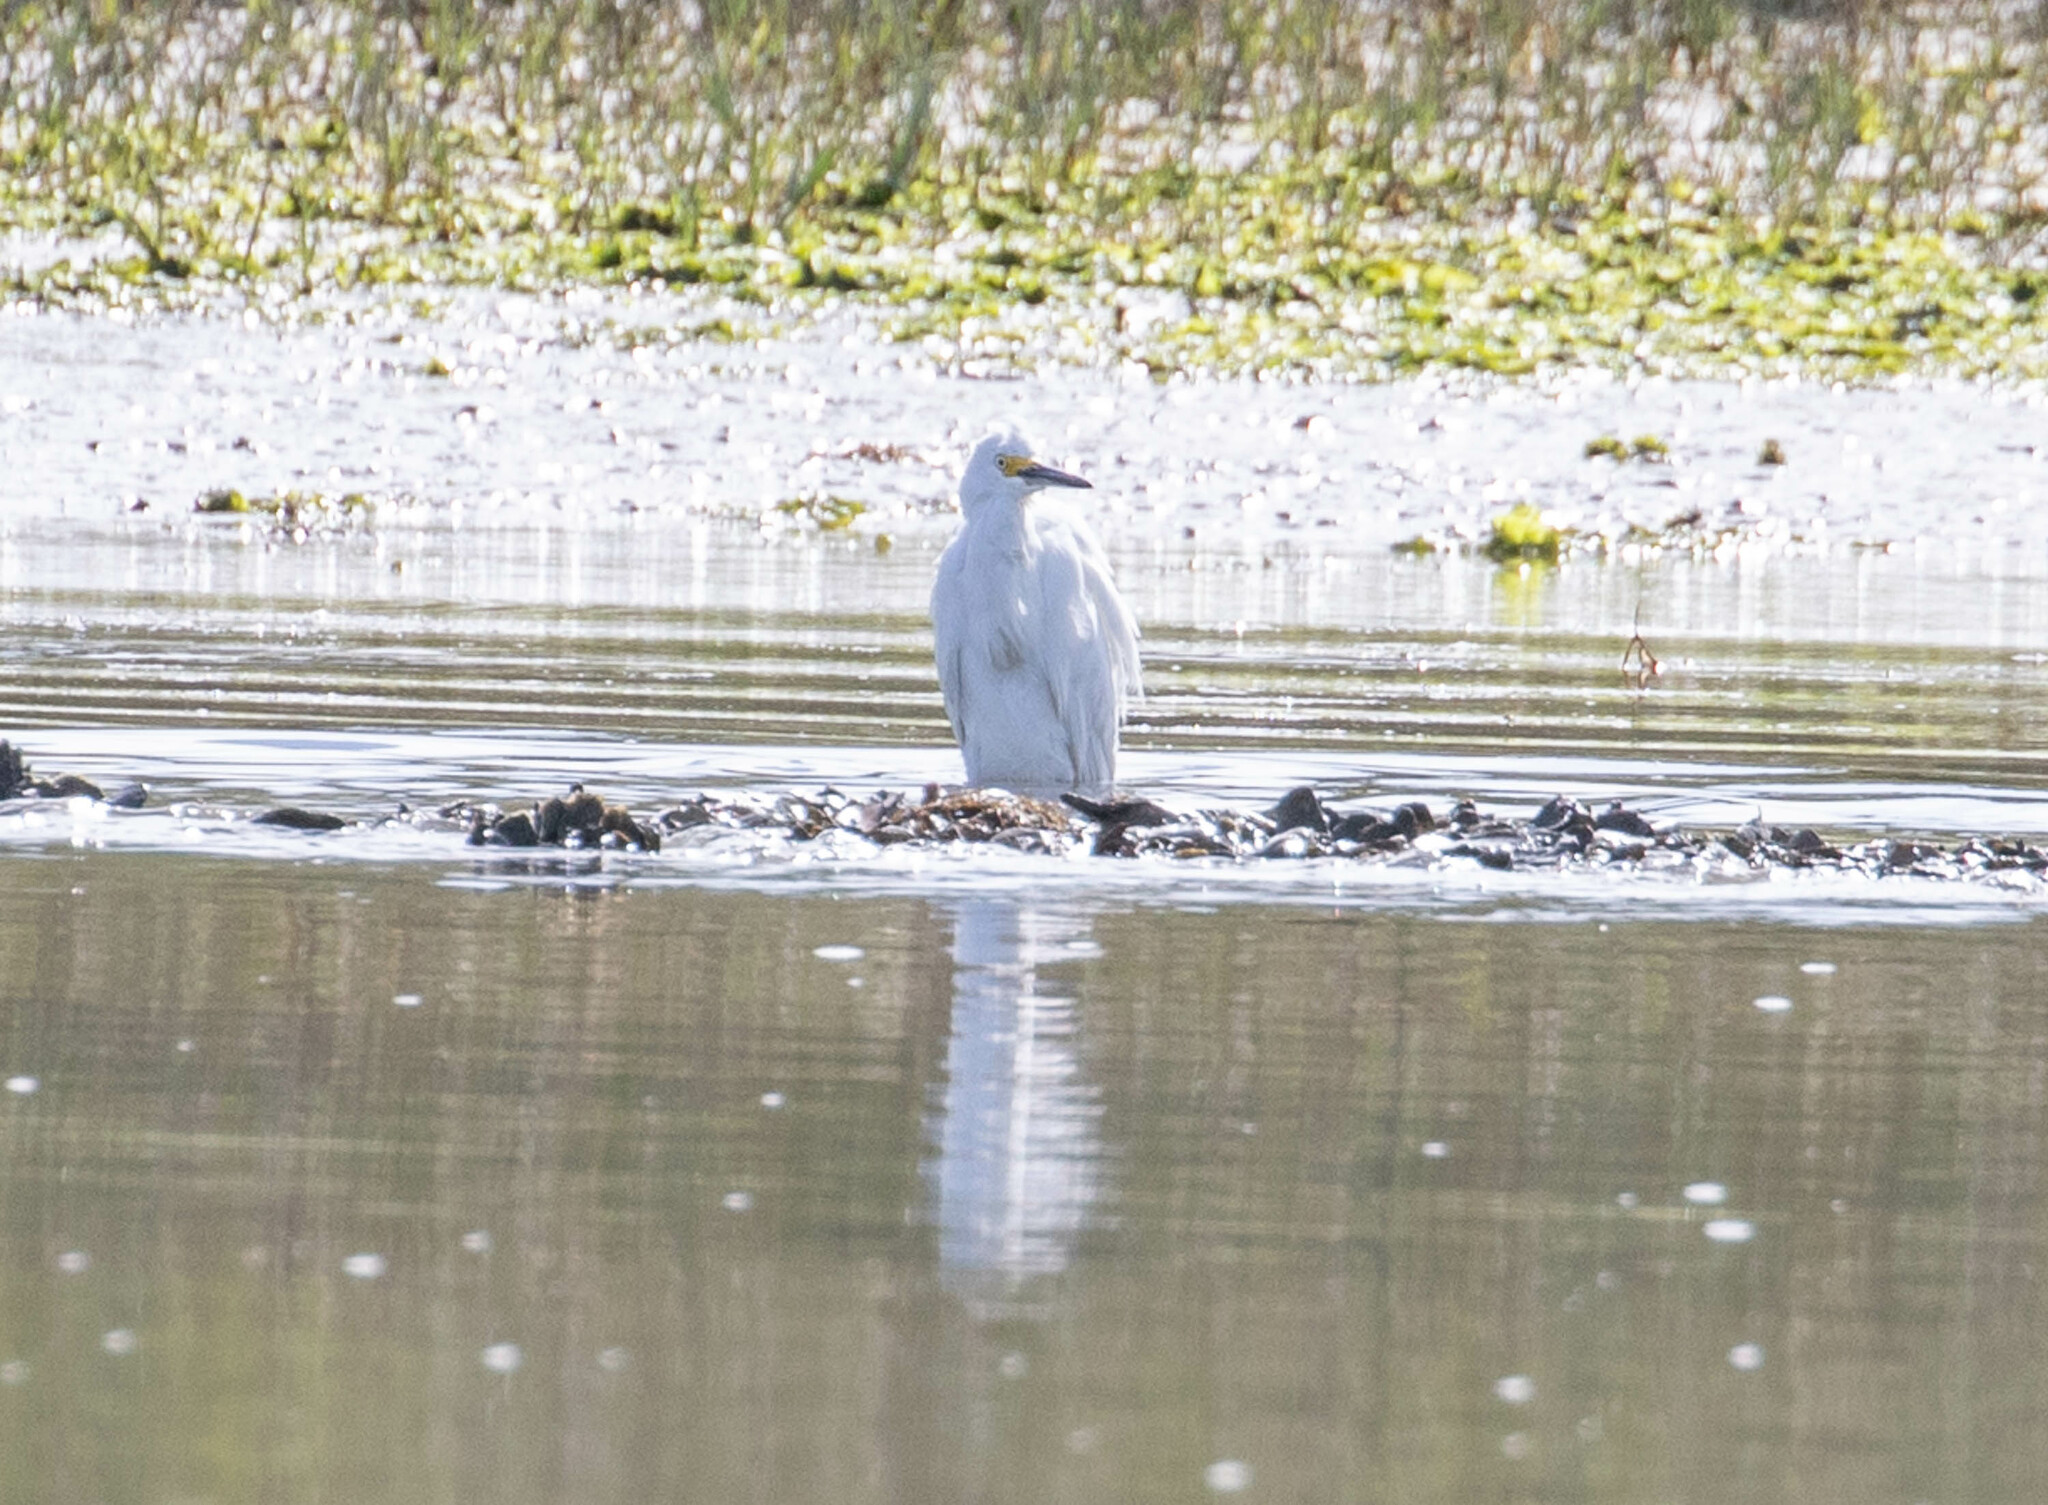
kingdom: Animalia
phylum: Chordata
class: Aves
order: Pelecaniformes
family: Ardeidae
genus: Egretta
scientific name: Egretta thula
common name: Snowy egret
